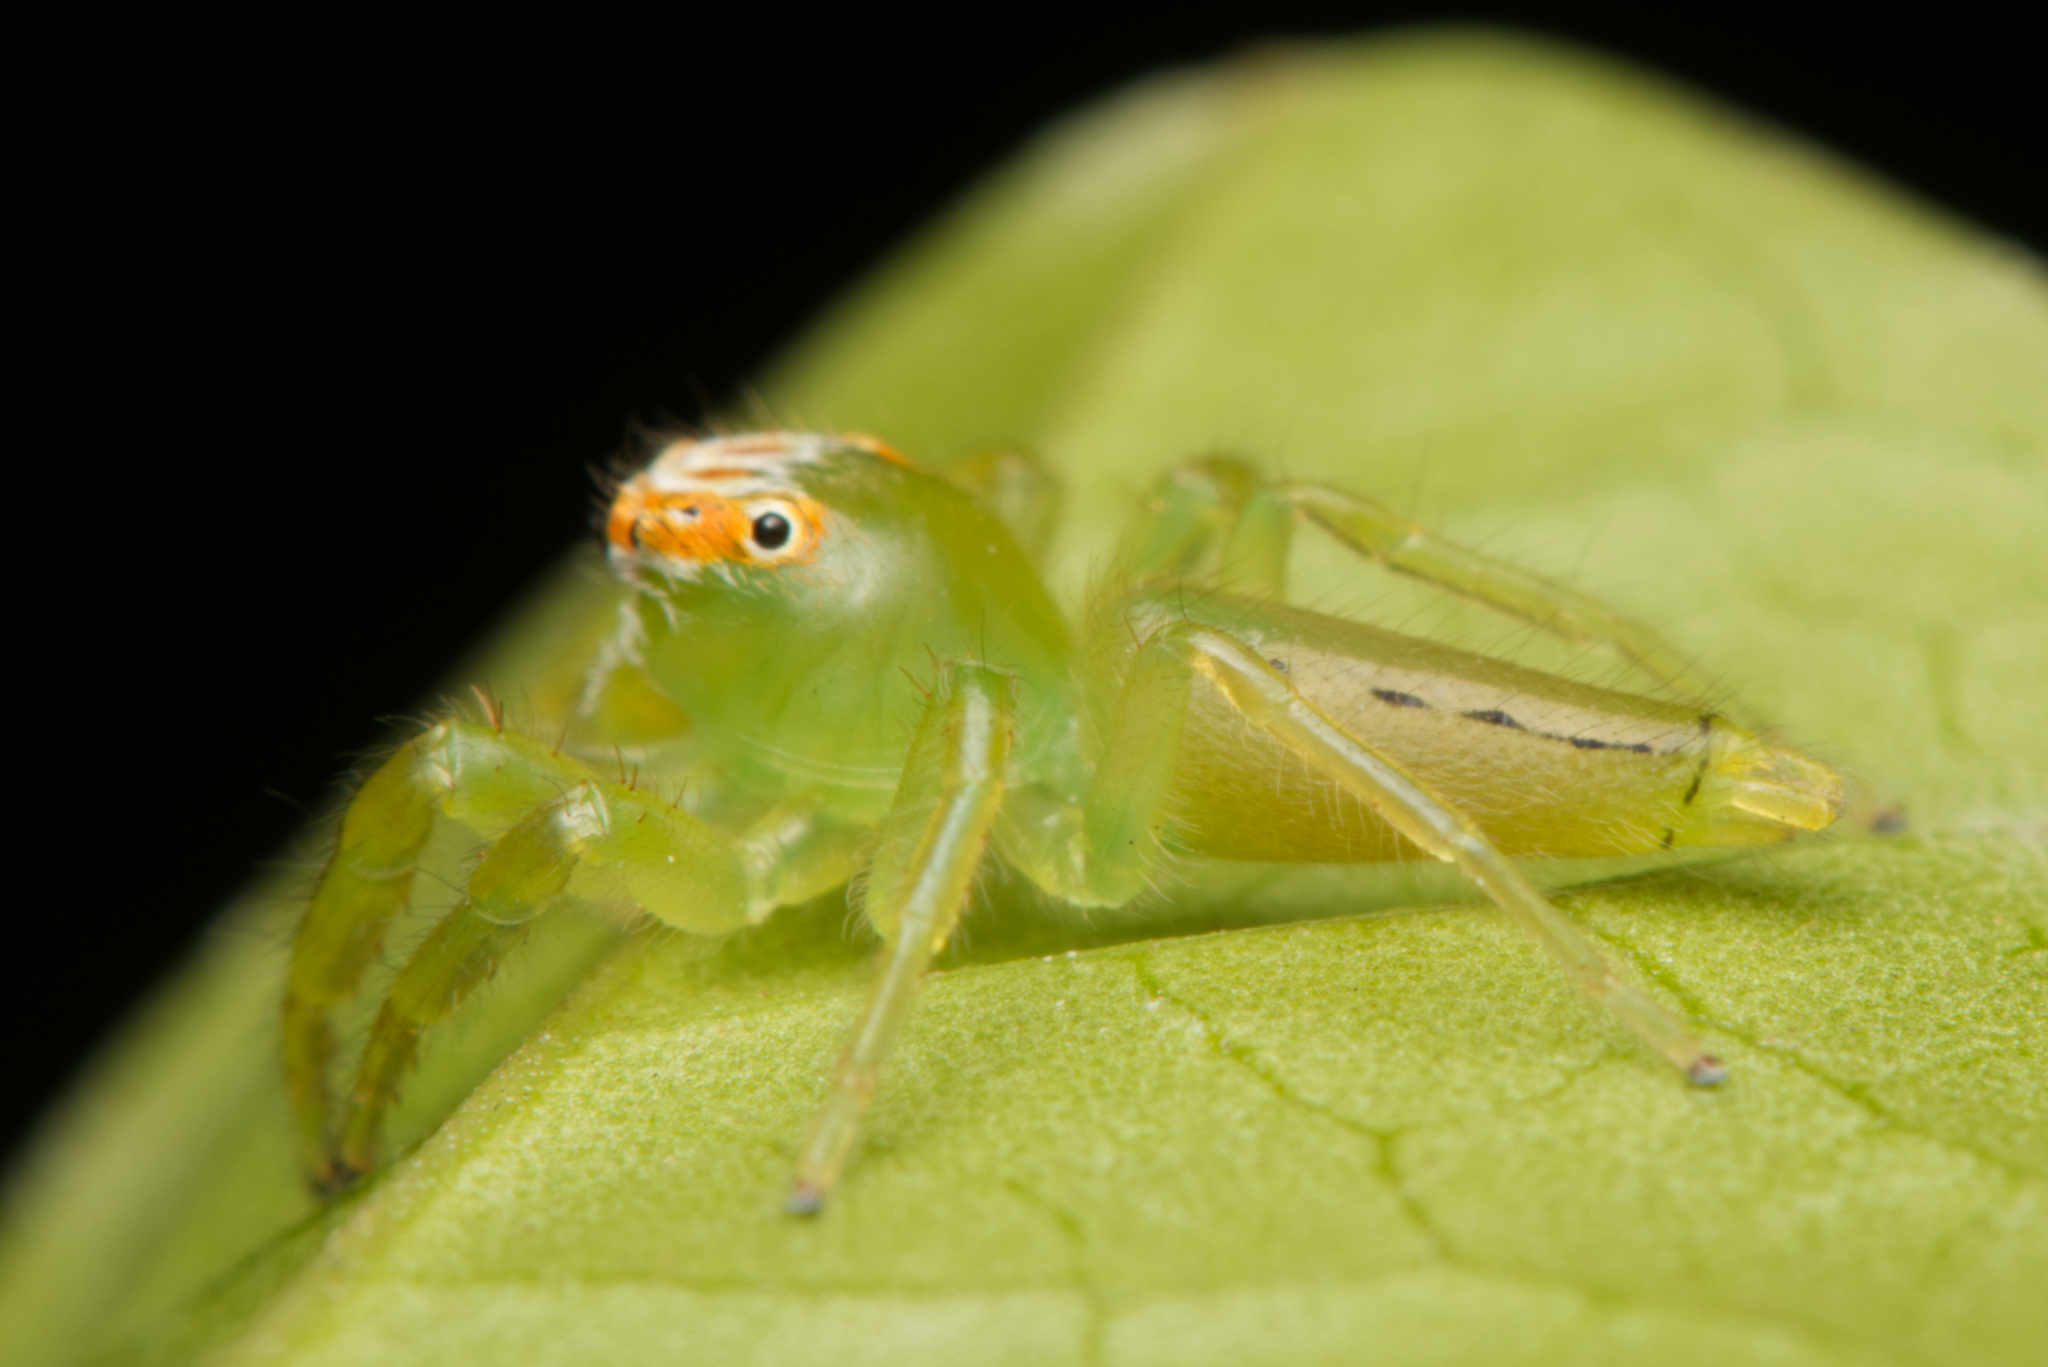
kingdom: Animalia
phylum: Arthropoda
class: Arachnida
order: Araneae
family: Salticidae
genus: Mopsus
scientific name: Mopsus mormon
